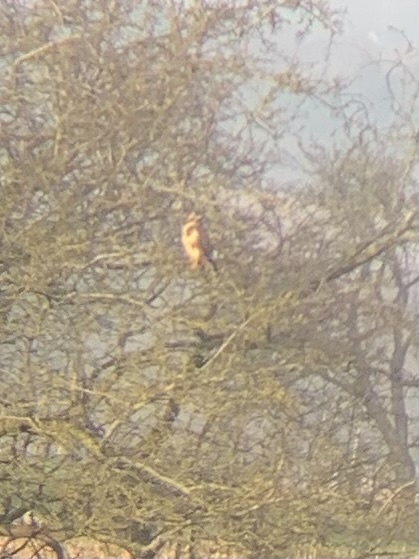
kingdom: Animalia
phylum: Chordata
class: Aves
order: Accipitriformes
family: Accipitridae
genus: Buteo
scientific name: Buteo buteo
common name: Common buzzard
